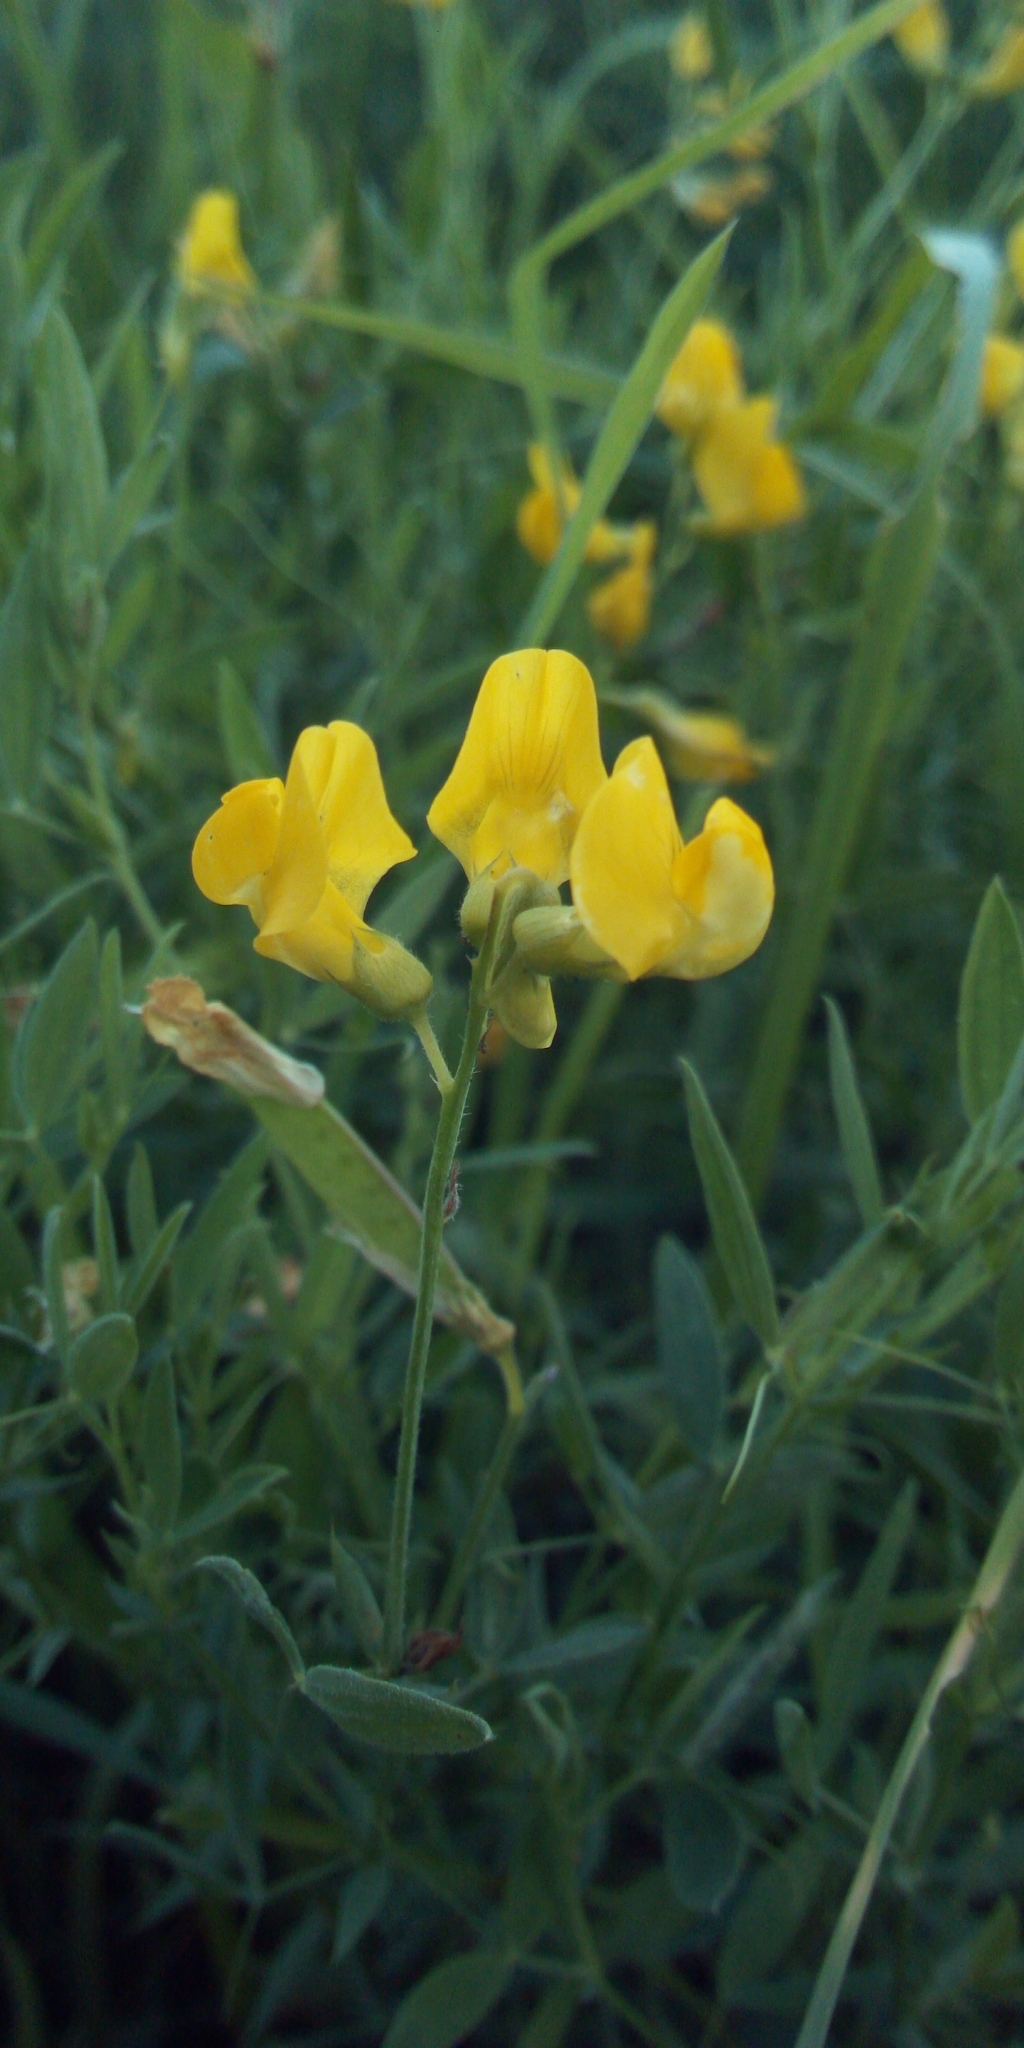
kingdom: Plantae
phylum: Tracheophyta
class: Magnoliopsida
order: Fabales
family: Fabaceae
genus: Lathyrus
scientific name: Lathyrus pratensis
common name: Meadow vetchling
